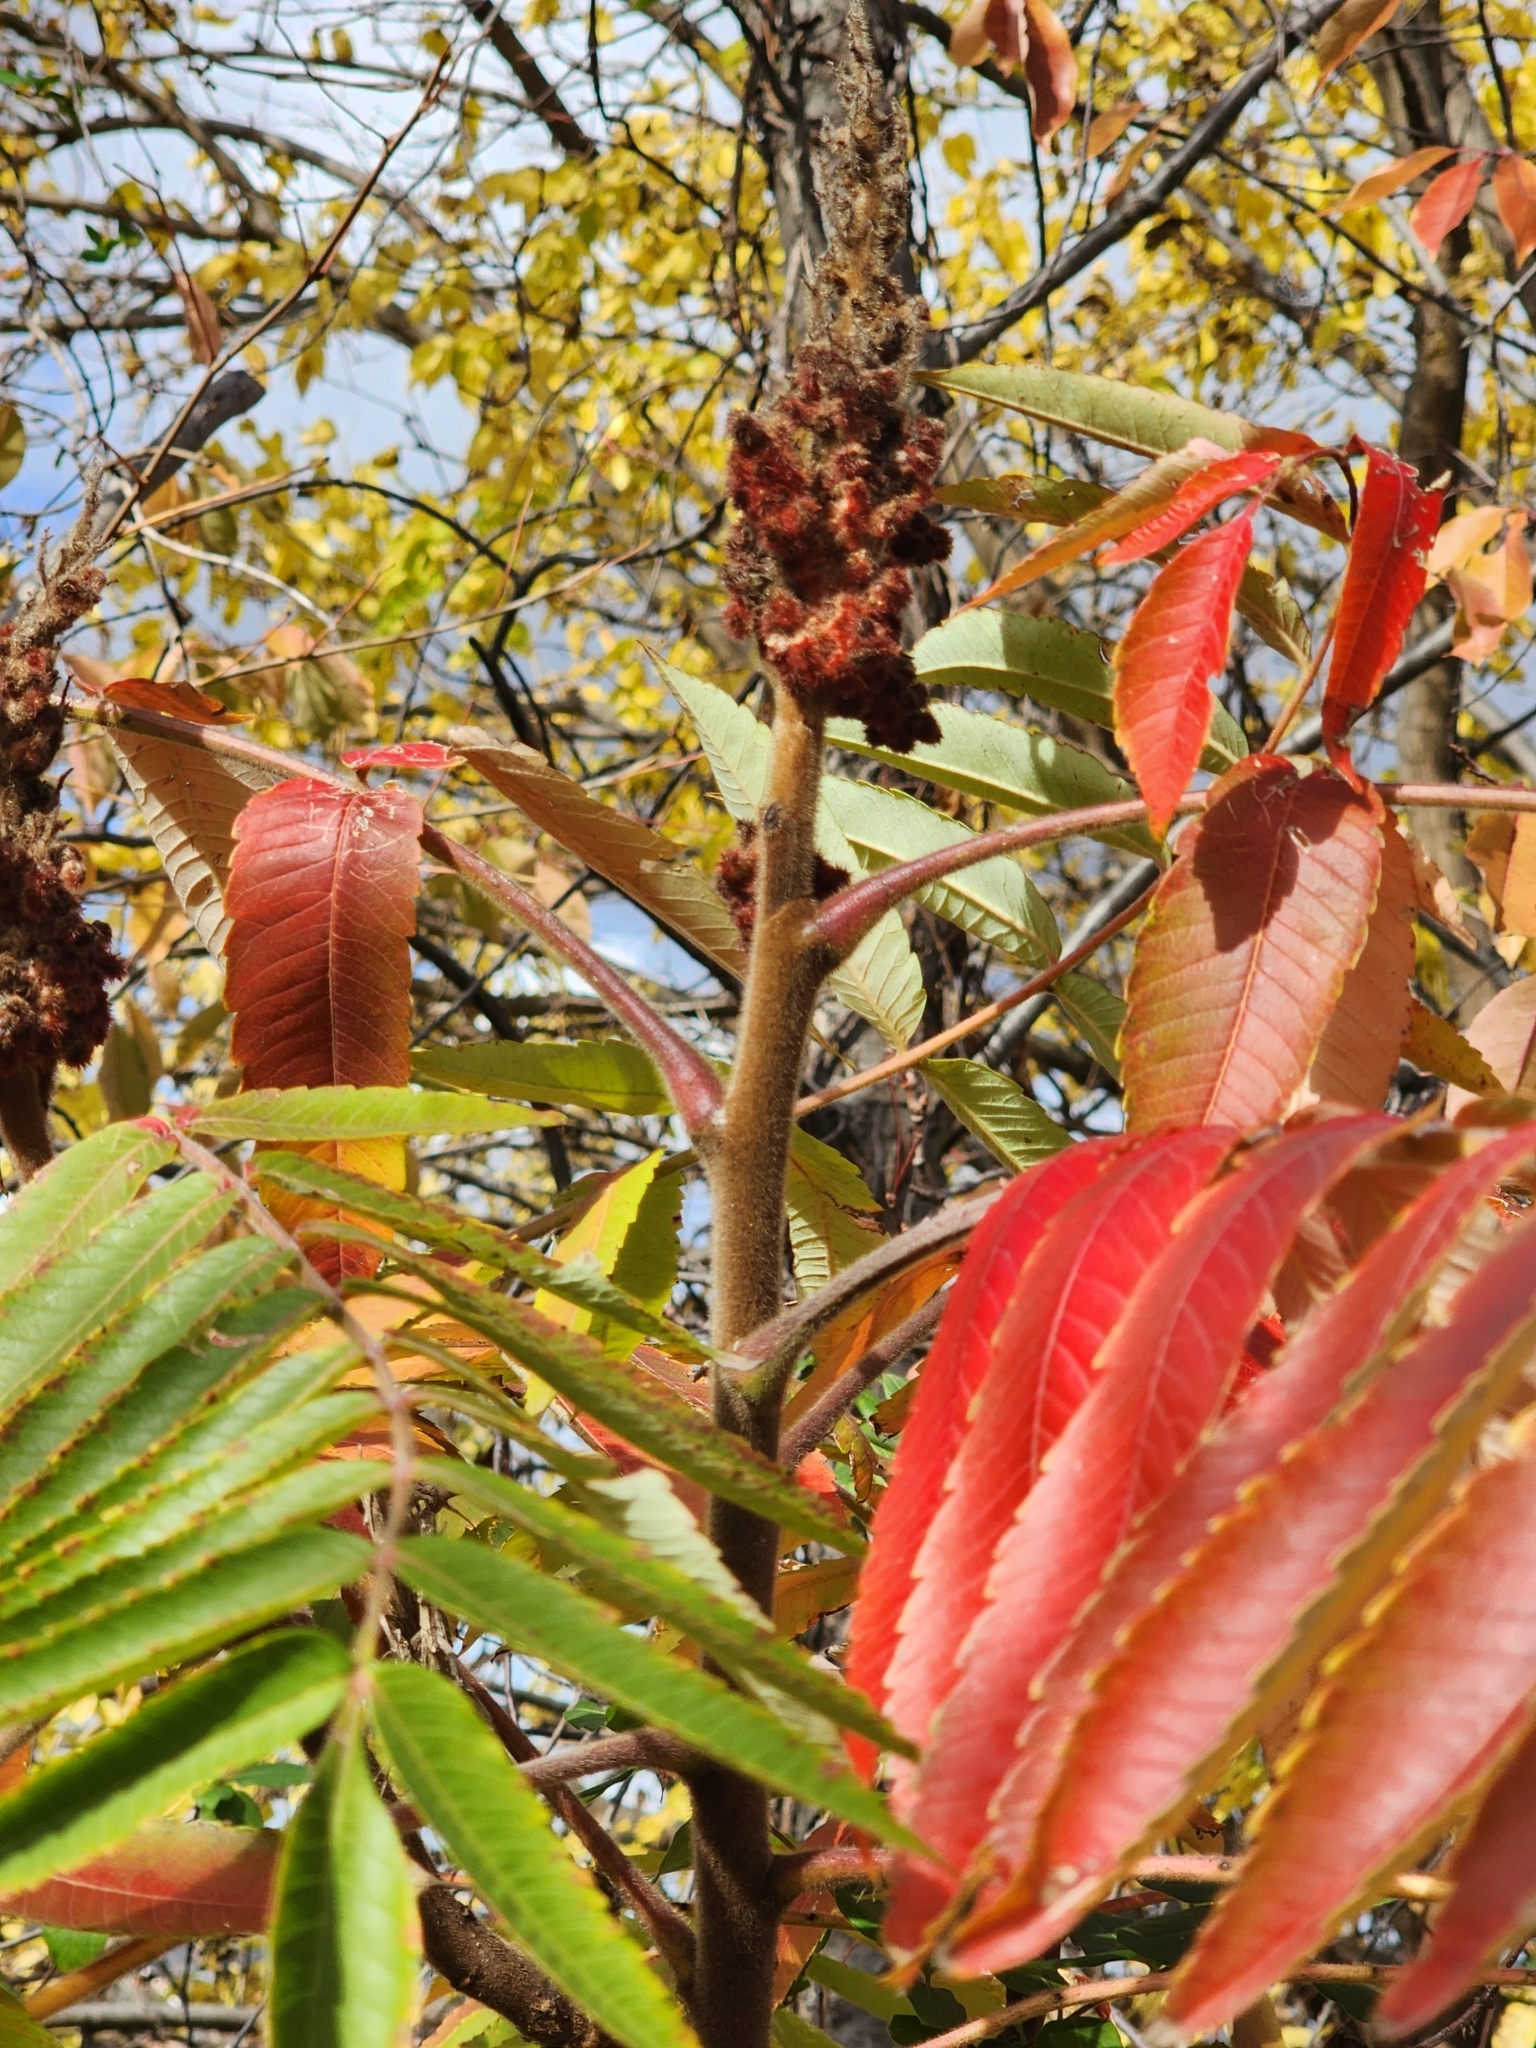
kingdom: Plantae
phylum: Tracheophyta
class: Magnoliopsida
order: Sapindales
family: Anacardiaceae
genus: Rhus
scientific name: Rhus typhina
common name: Staghorn sumac
